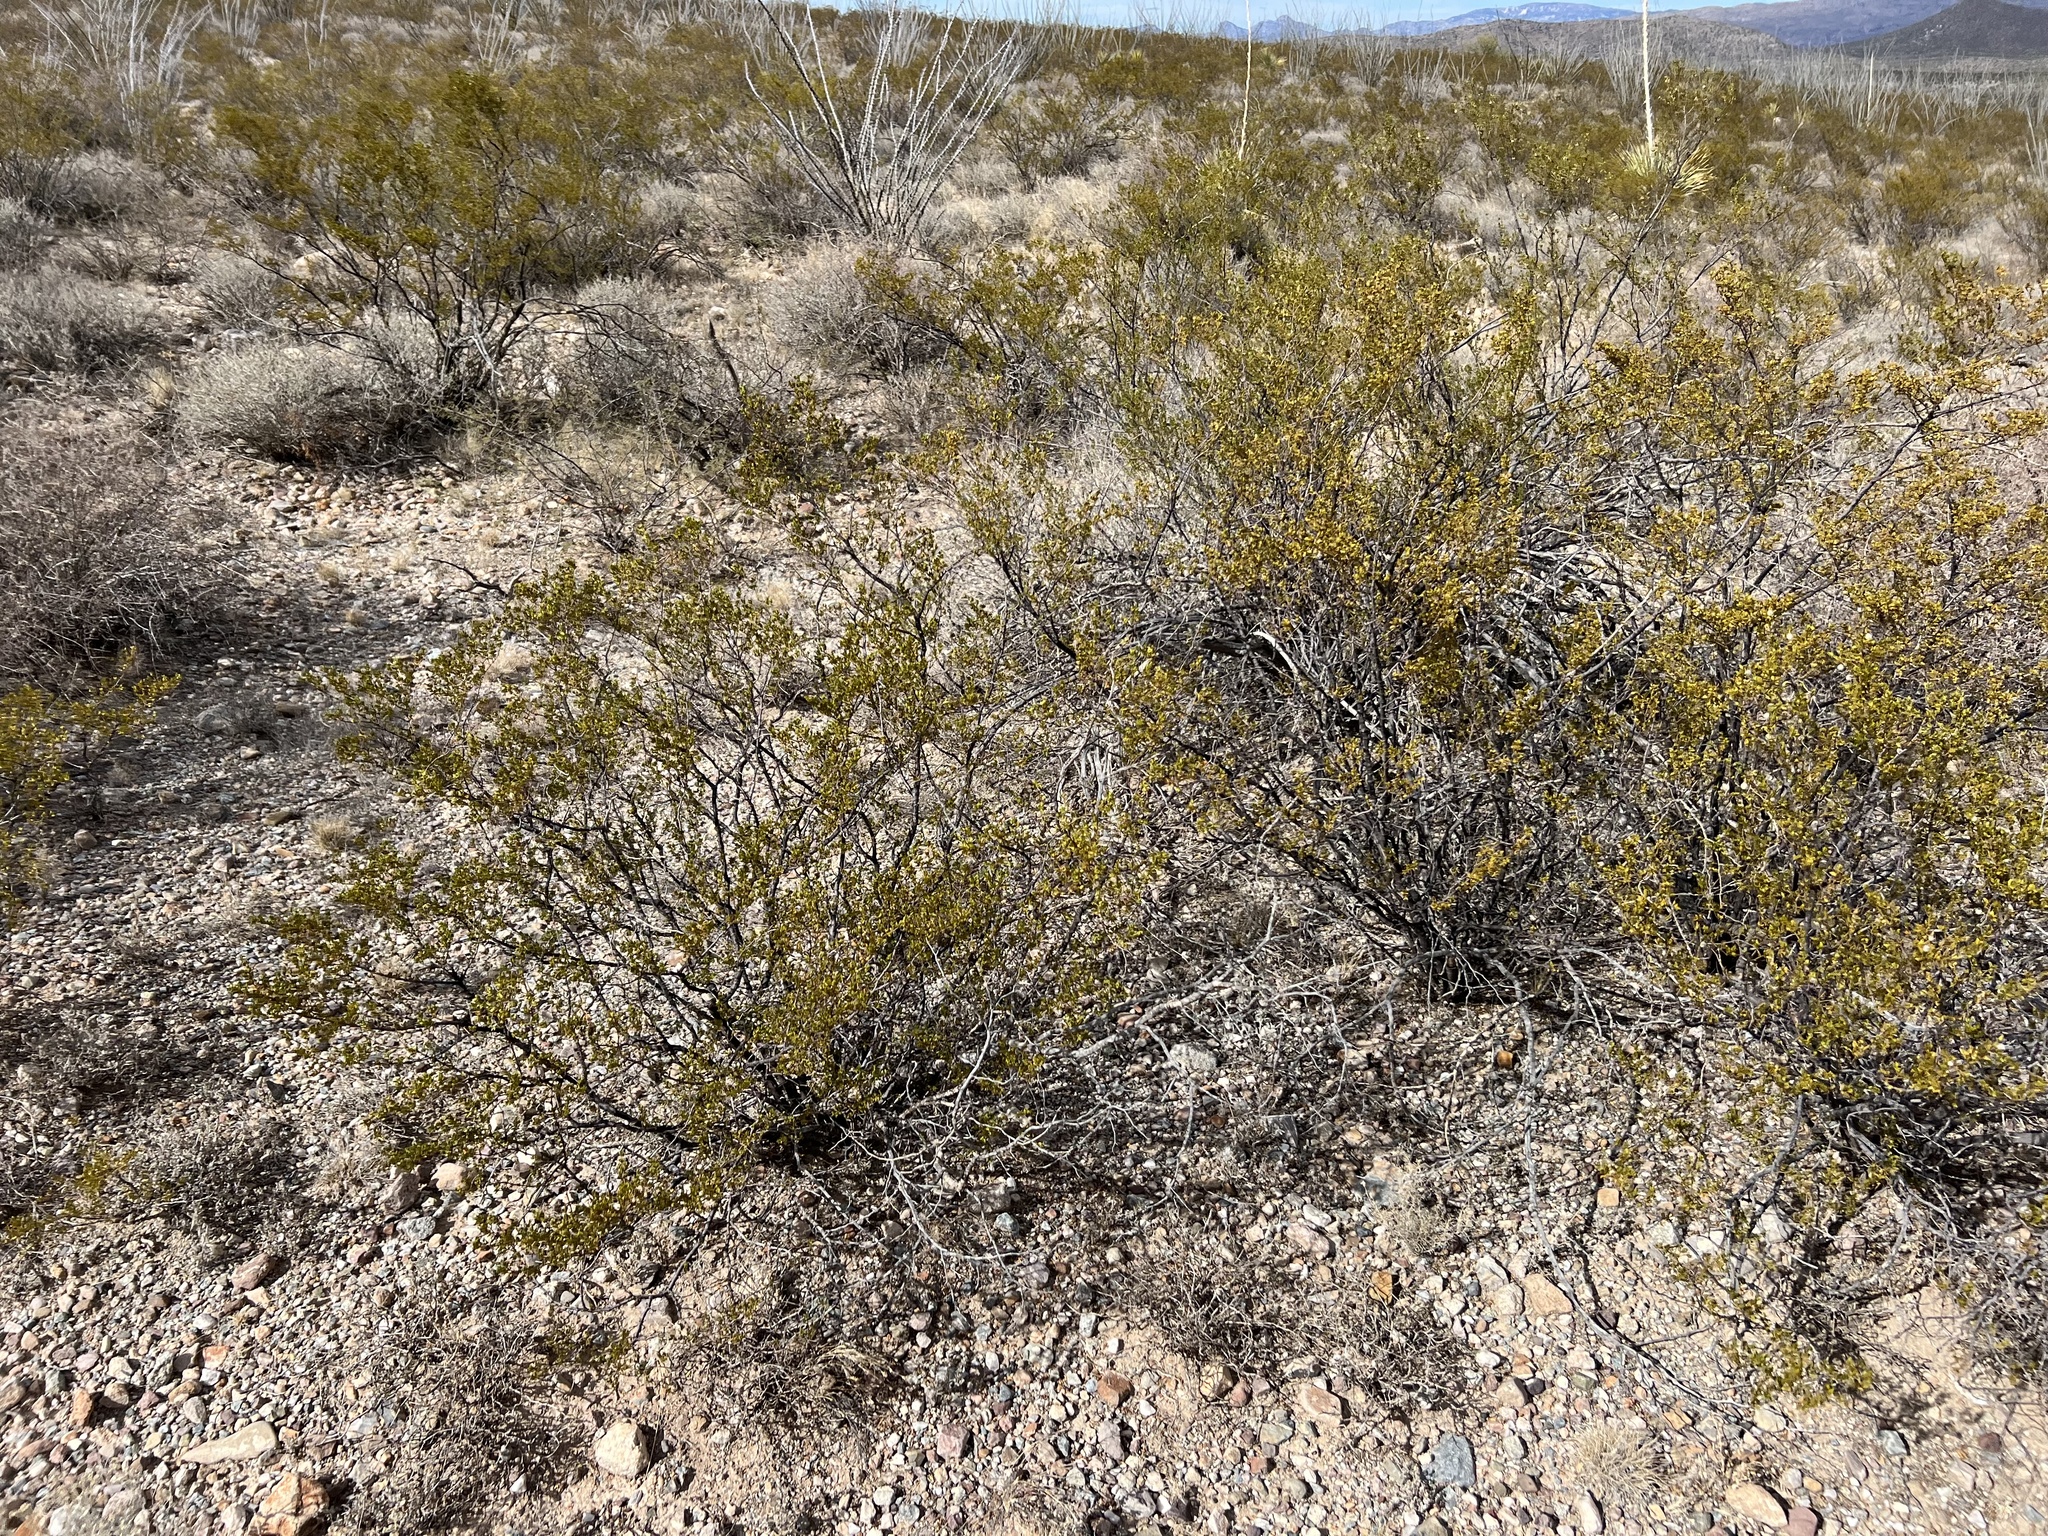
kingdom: Plantae
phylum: Tracheophyta
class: Magnoliopsida
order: Zygophyllales
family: Zygophyllaceae
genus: Larrea
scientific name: Larrea tridentata
